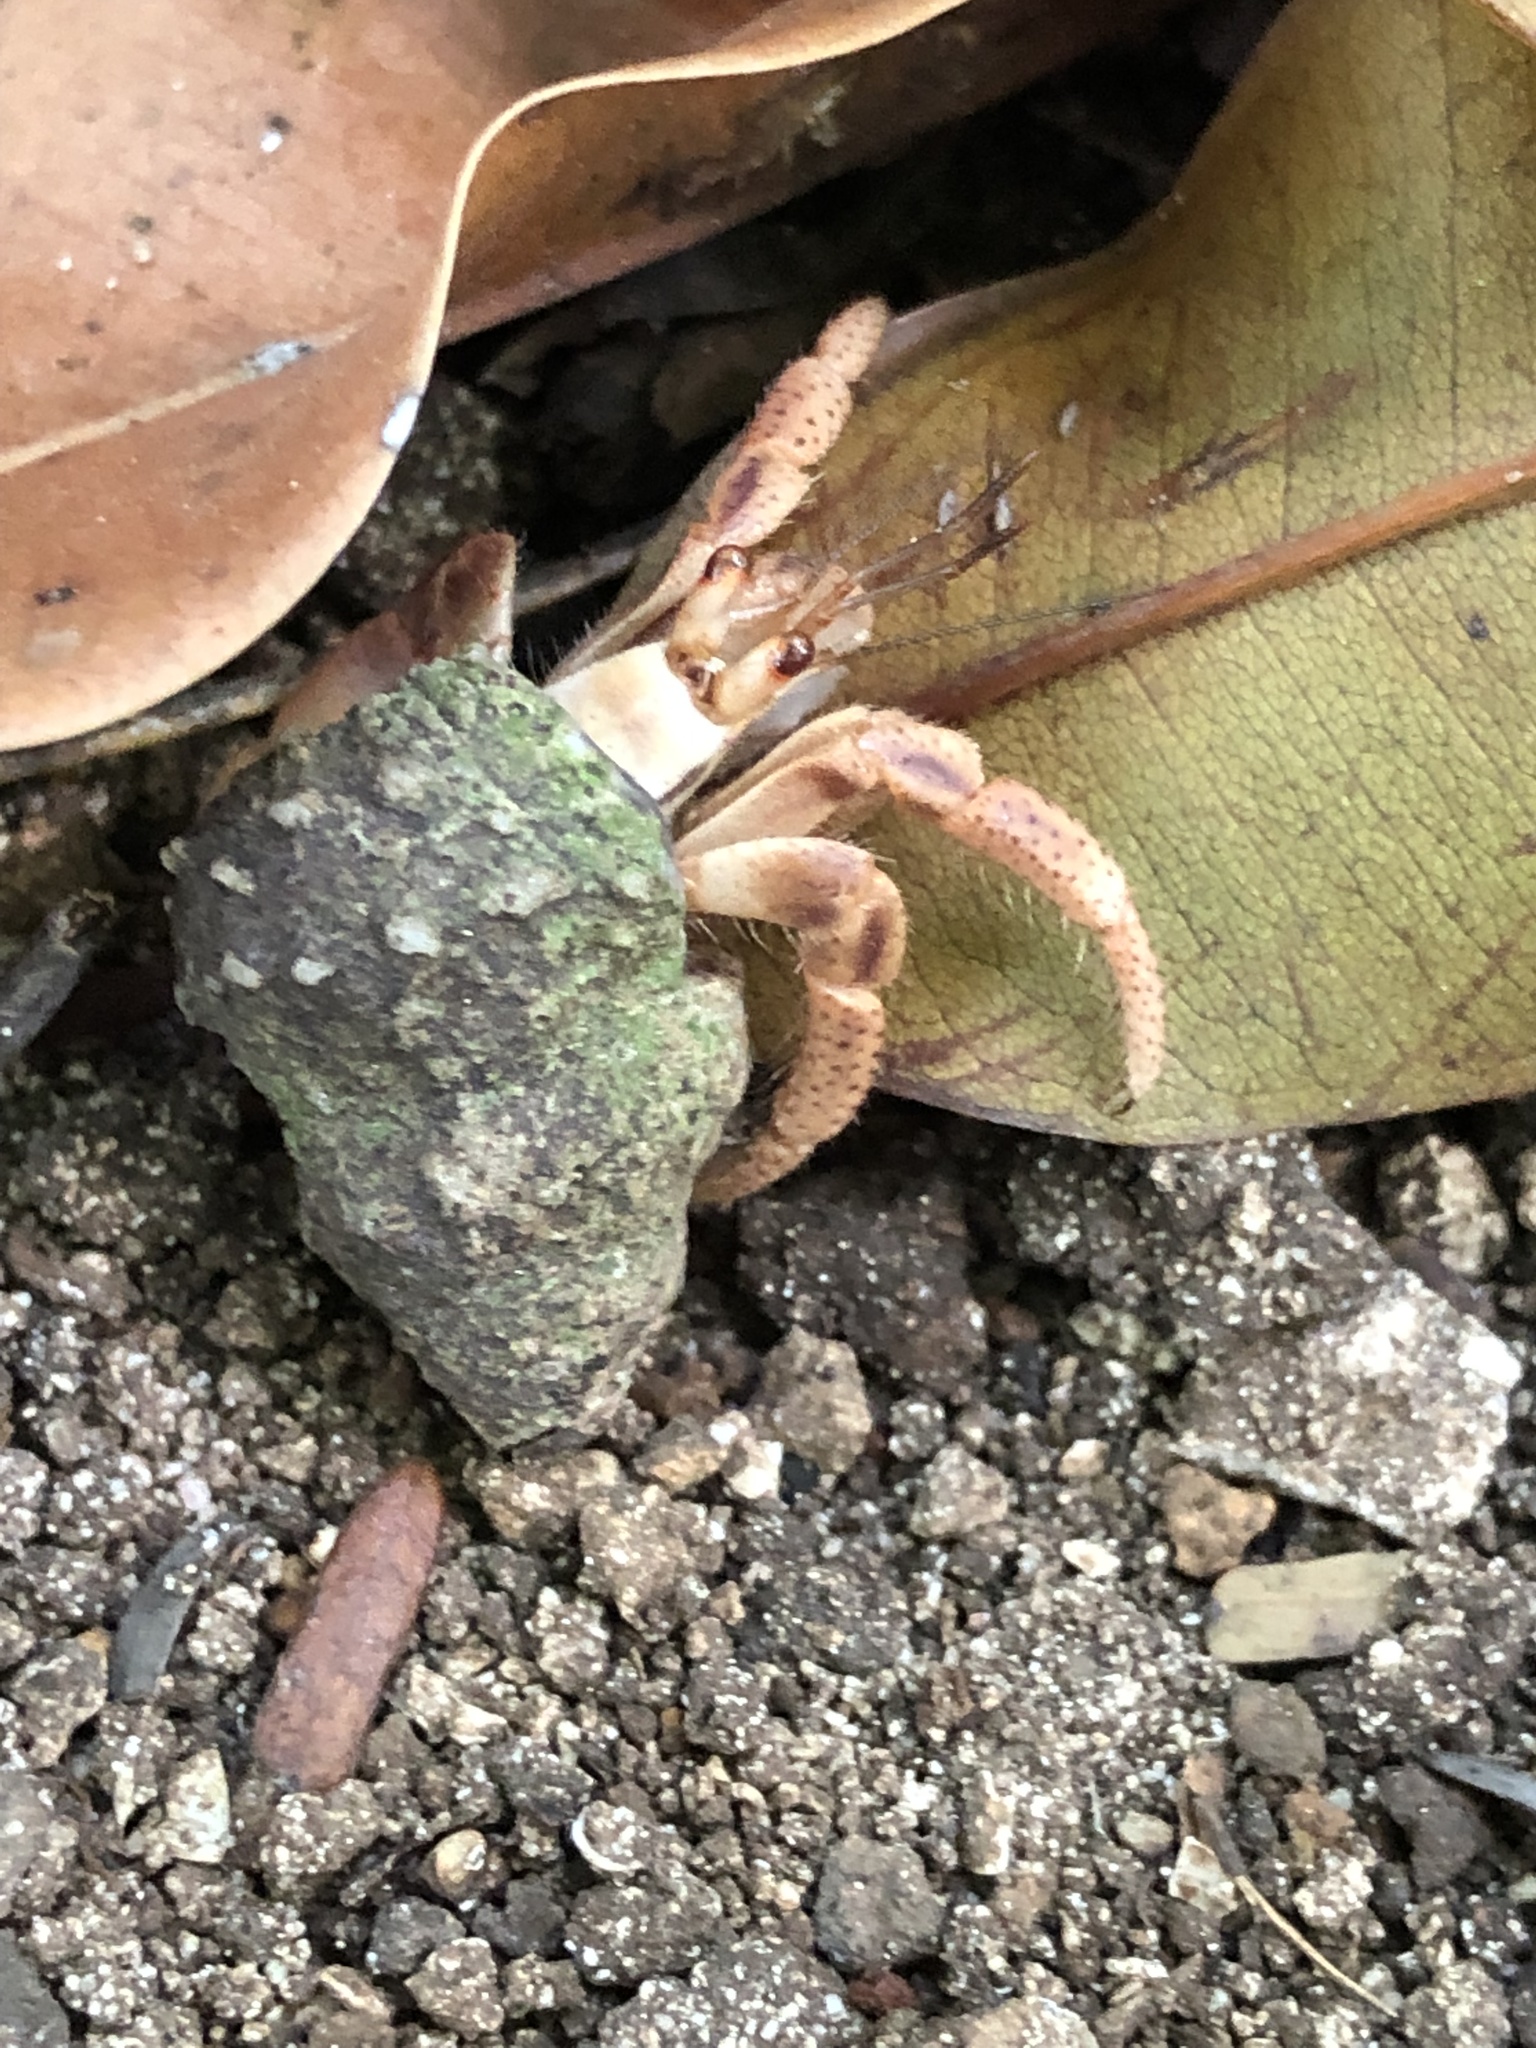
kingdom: Animalia
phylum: Arthropoda
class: Malacostraca
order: Decapoda
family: Coenobitidae
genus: Coenobita
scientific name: Coenobita clypeatus
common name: Caribbean hermit crab
